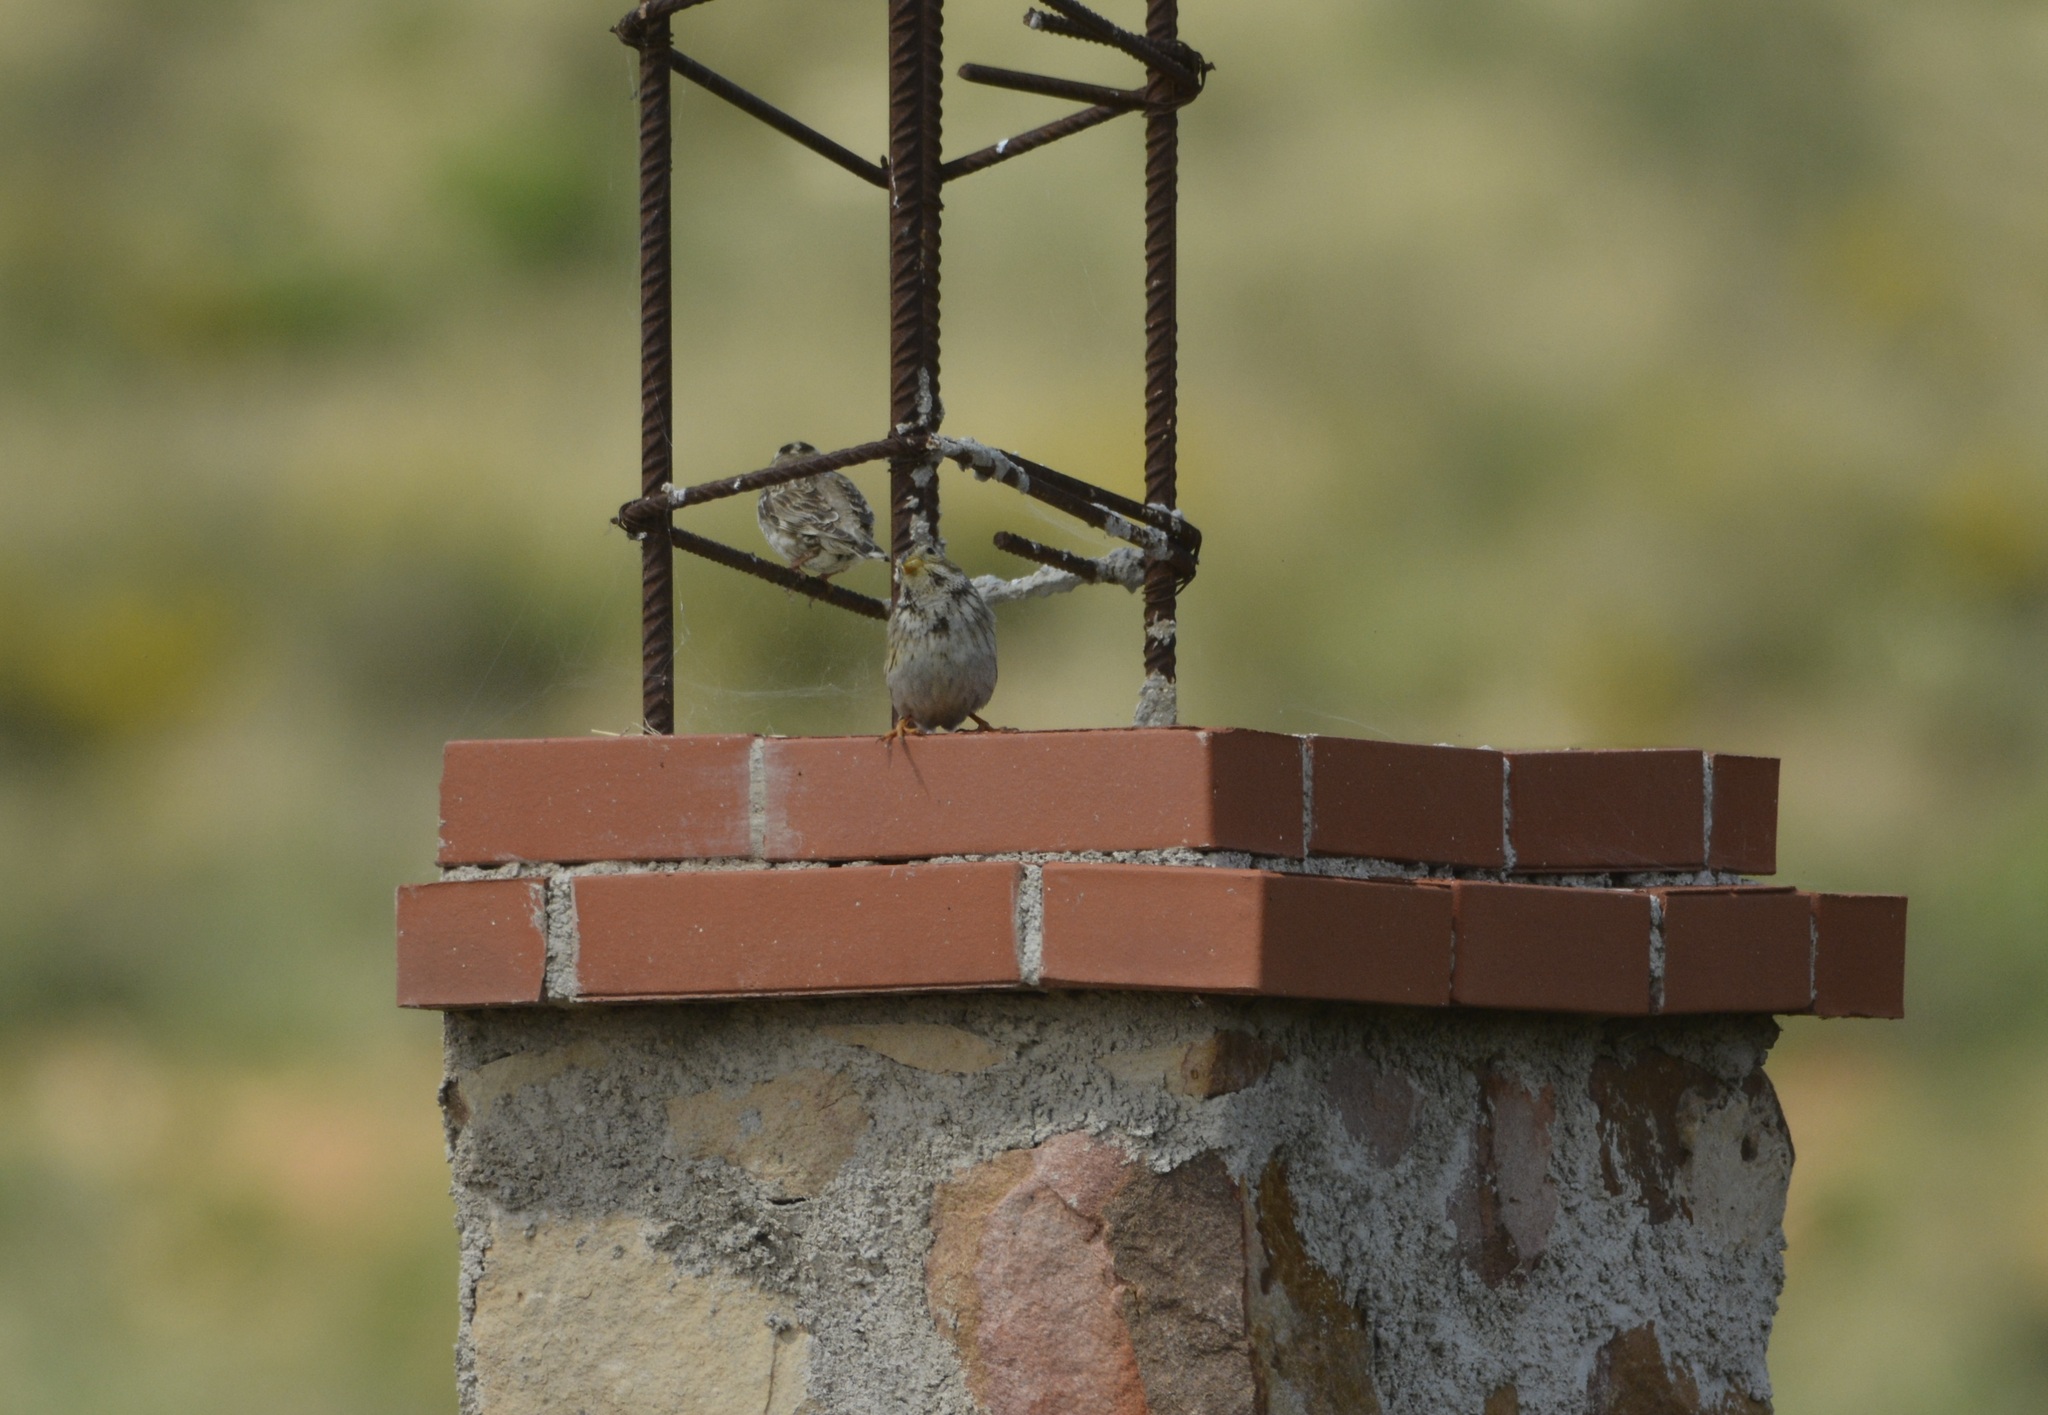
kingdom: Animalia
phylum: Chordata
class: Aves
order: Passeriformes
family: Passeridae
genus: Petronia
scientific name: Petronia petronia
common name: Rock sparrow
